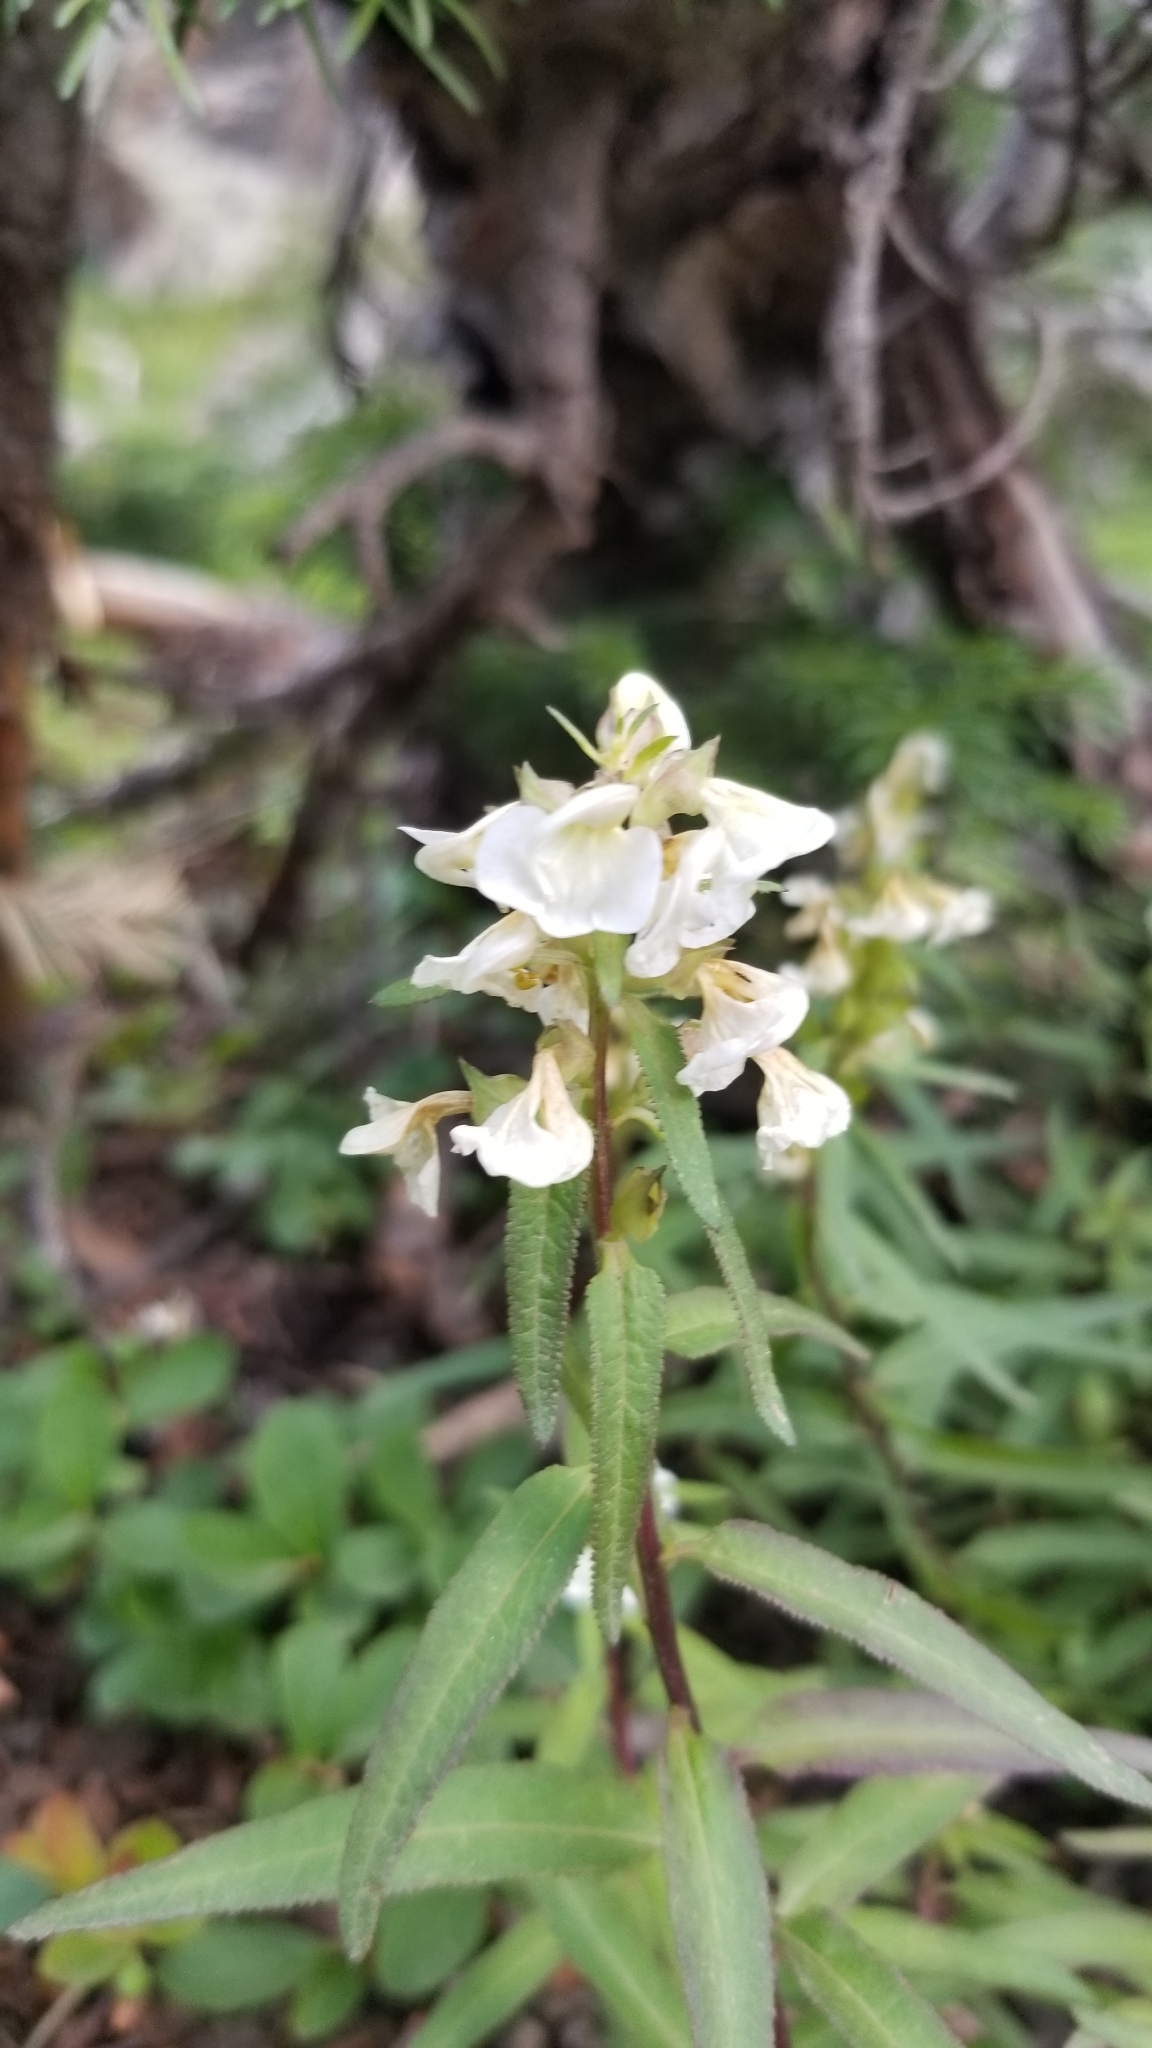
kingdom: Plantae
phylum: Tracheophyta
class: Magnoliopsida
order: Lamiales
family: Orobanchaceae
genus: Pedicularis
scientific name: Pedicularis racemosa
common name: Leafy lousewort
